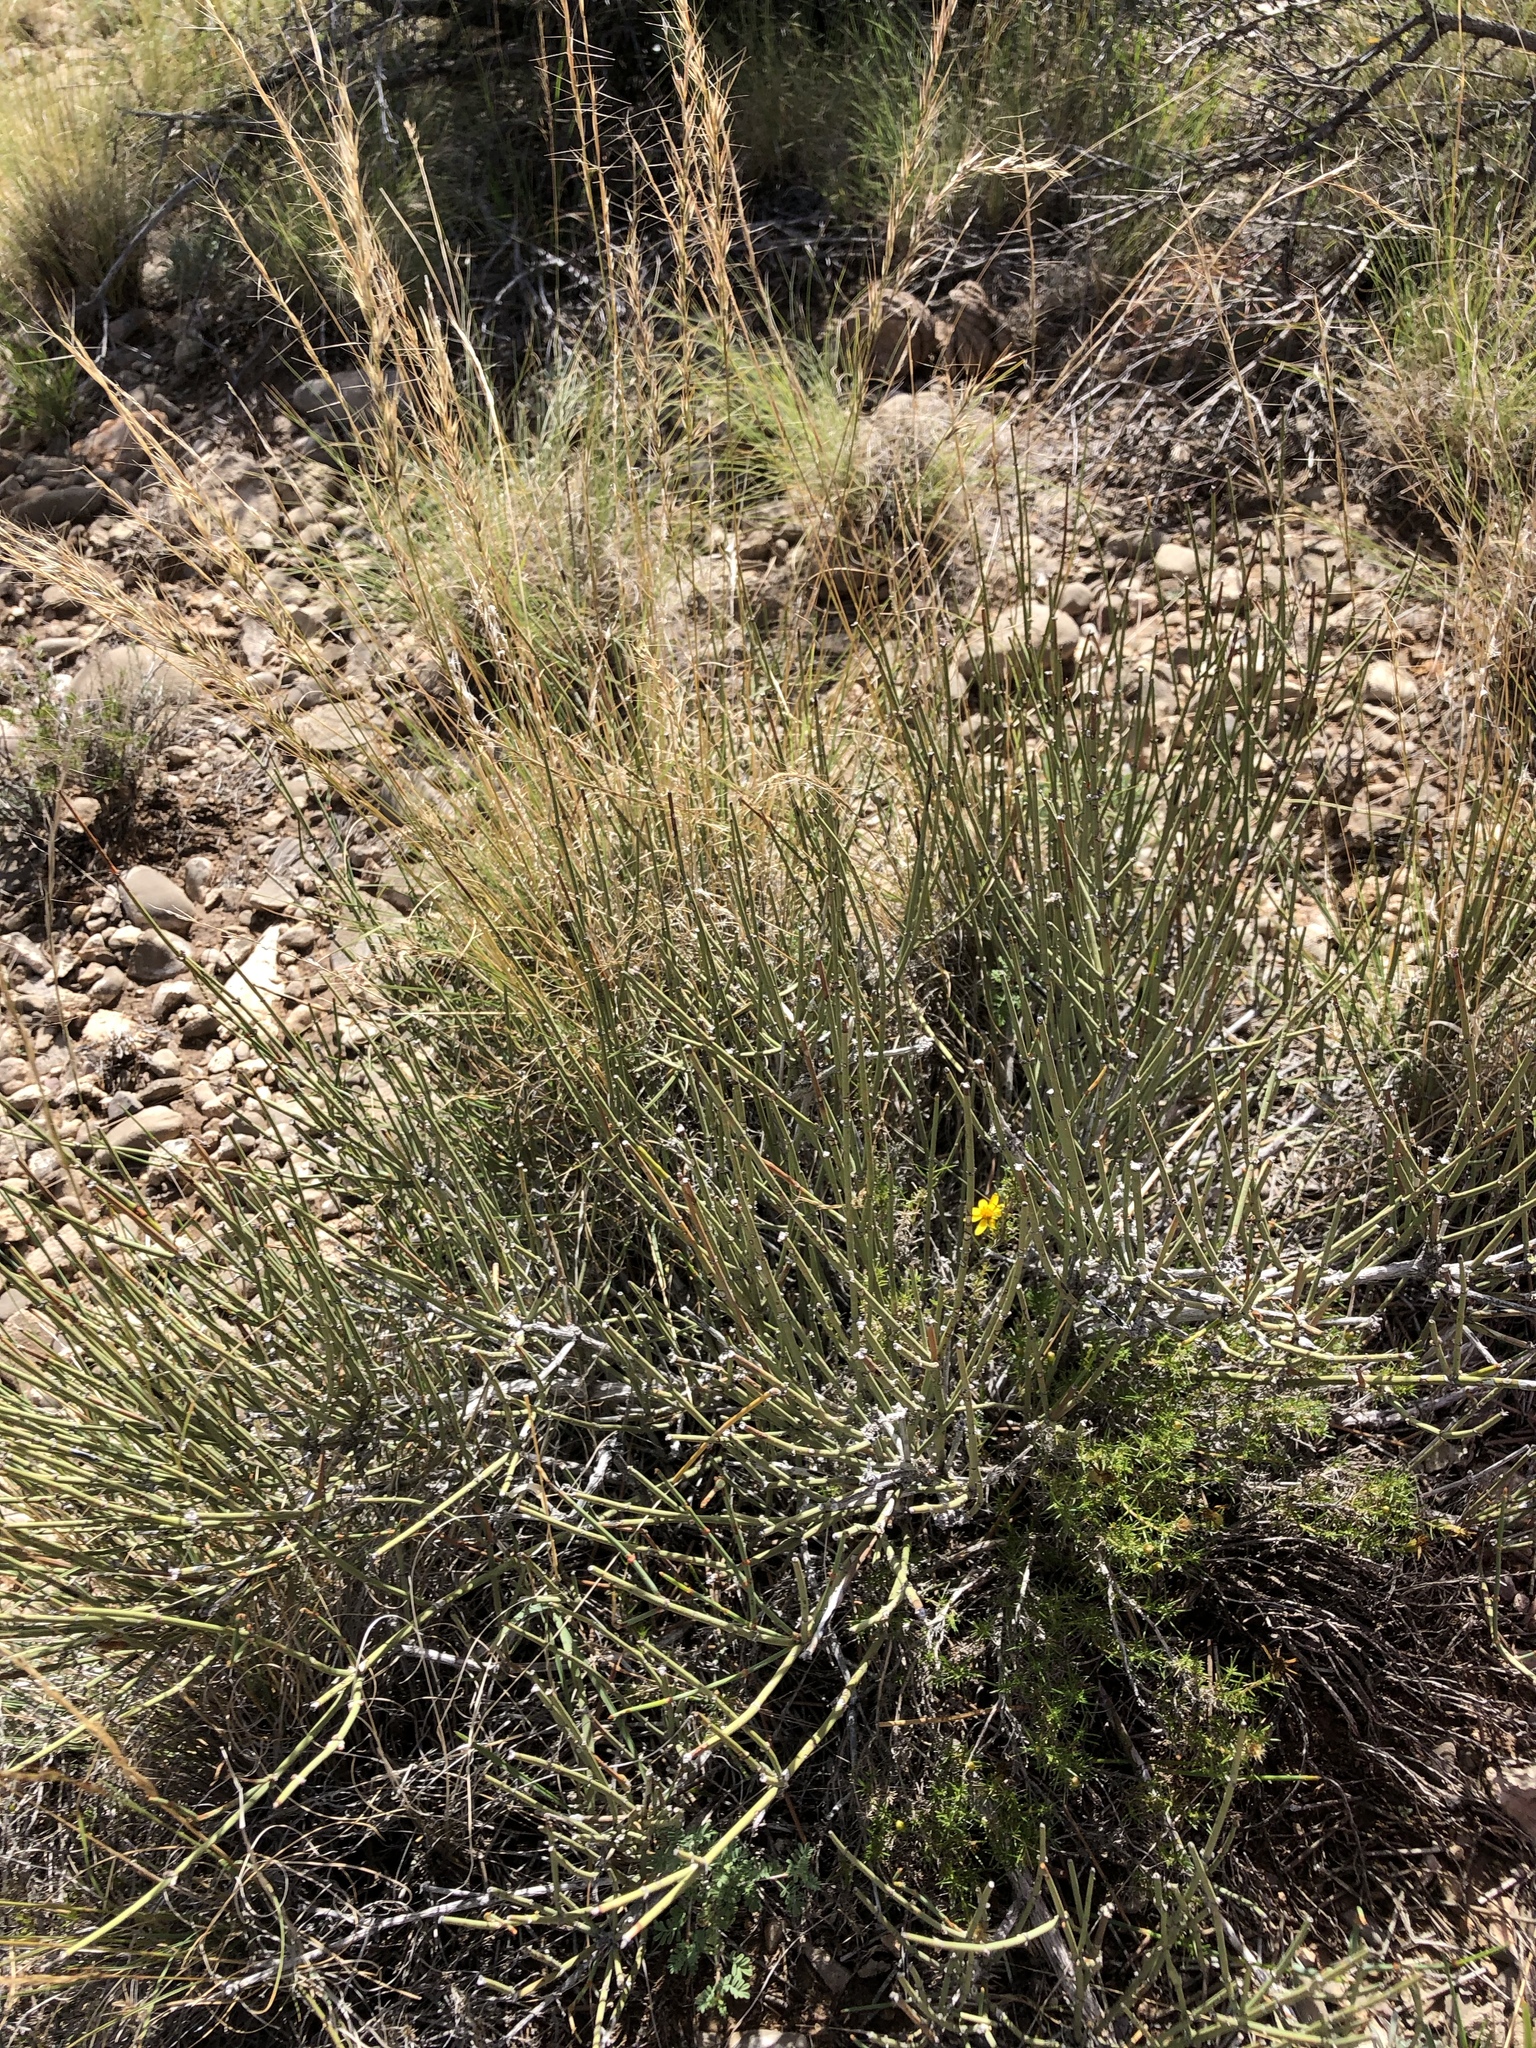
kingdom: Plantae
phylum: Tracheophyta
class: Gnetopsida
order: Ephedrales
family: Ephedraceae
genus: Ephedra
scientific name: Ephedra trifurca
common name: Mexican-tea
